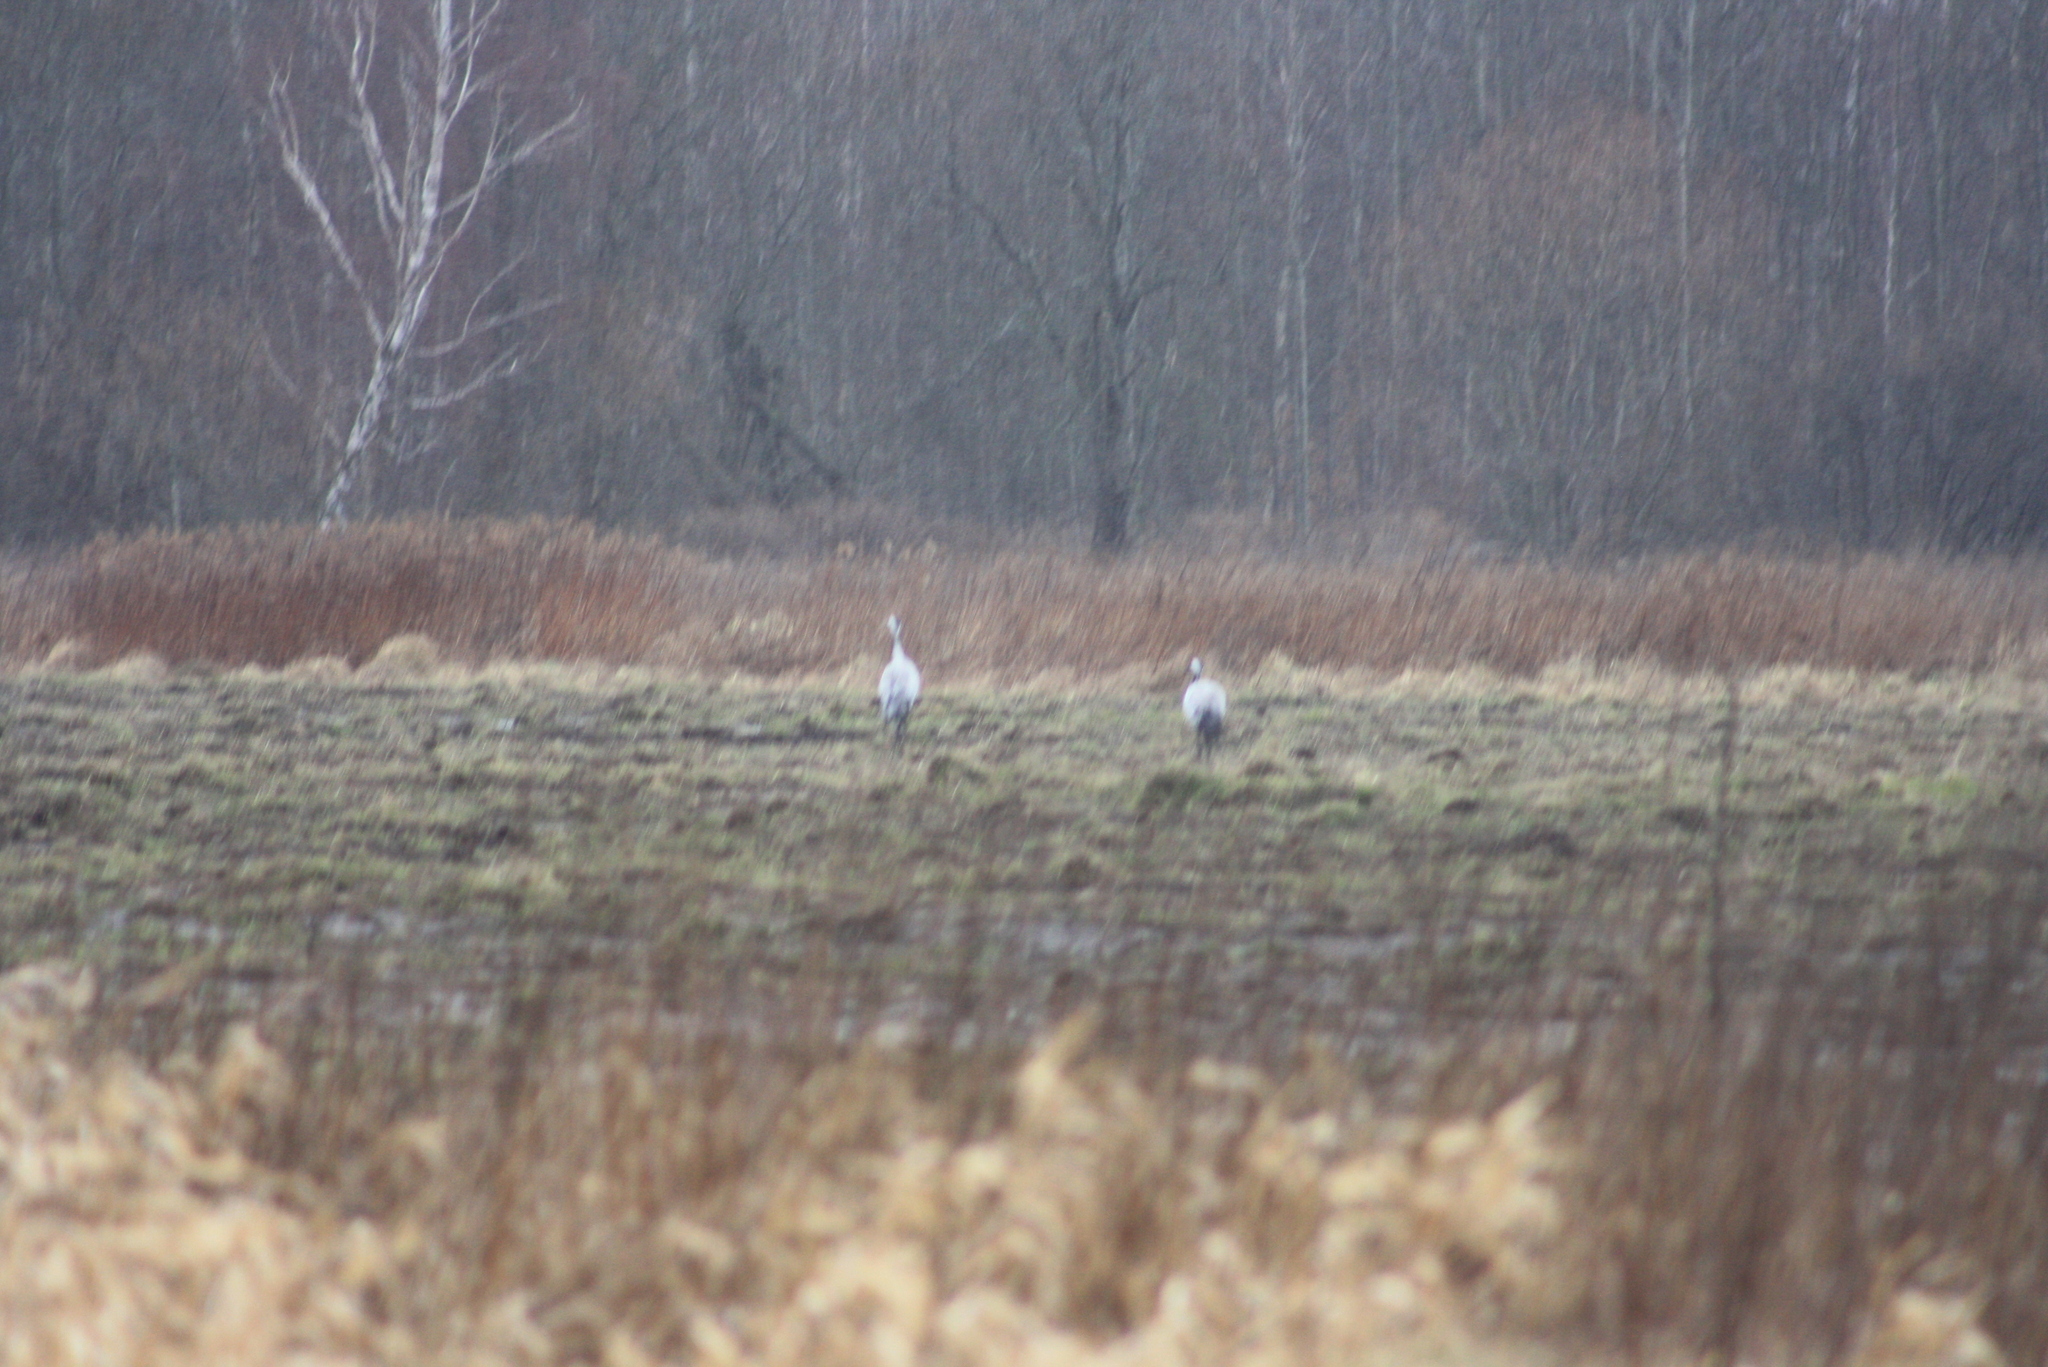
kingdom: Animalia
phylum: Chordata
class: Aves
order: Gruiformes
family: Gruidae
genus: Grus
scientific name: Grus grus
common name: Common crane
